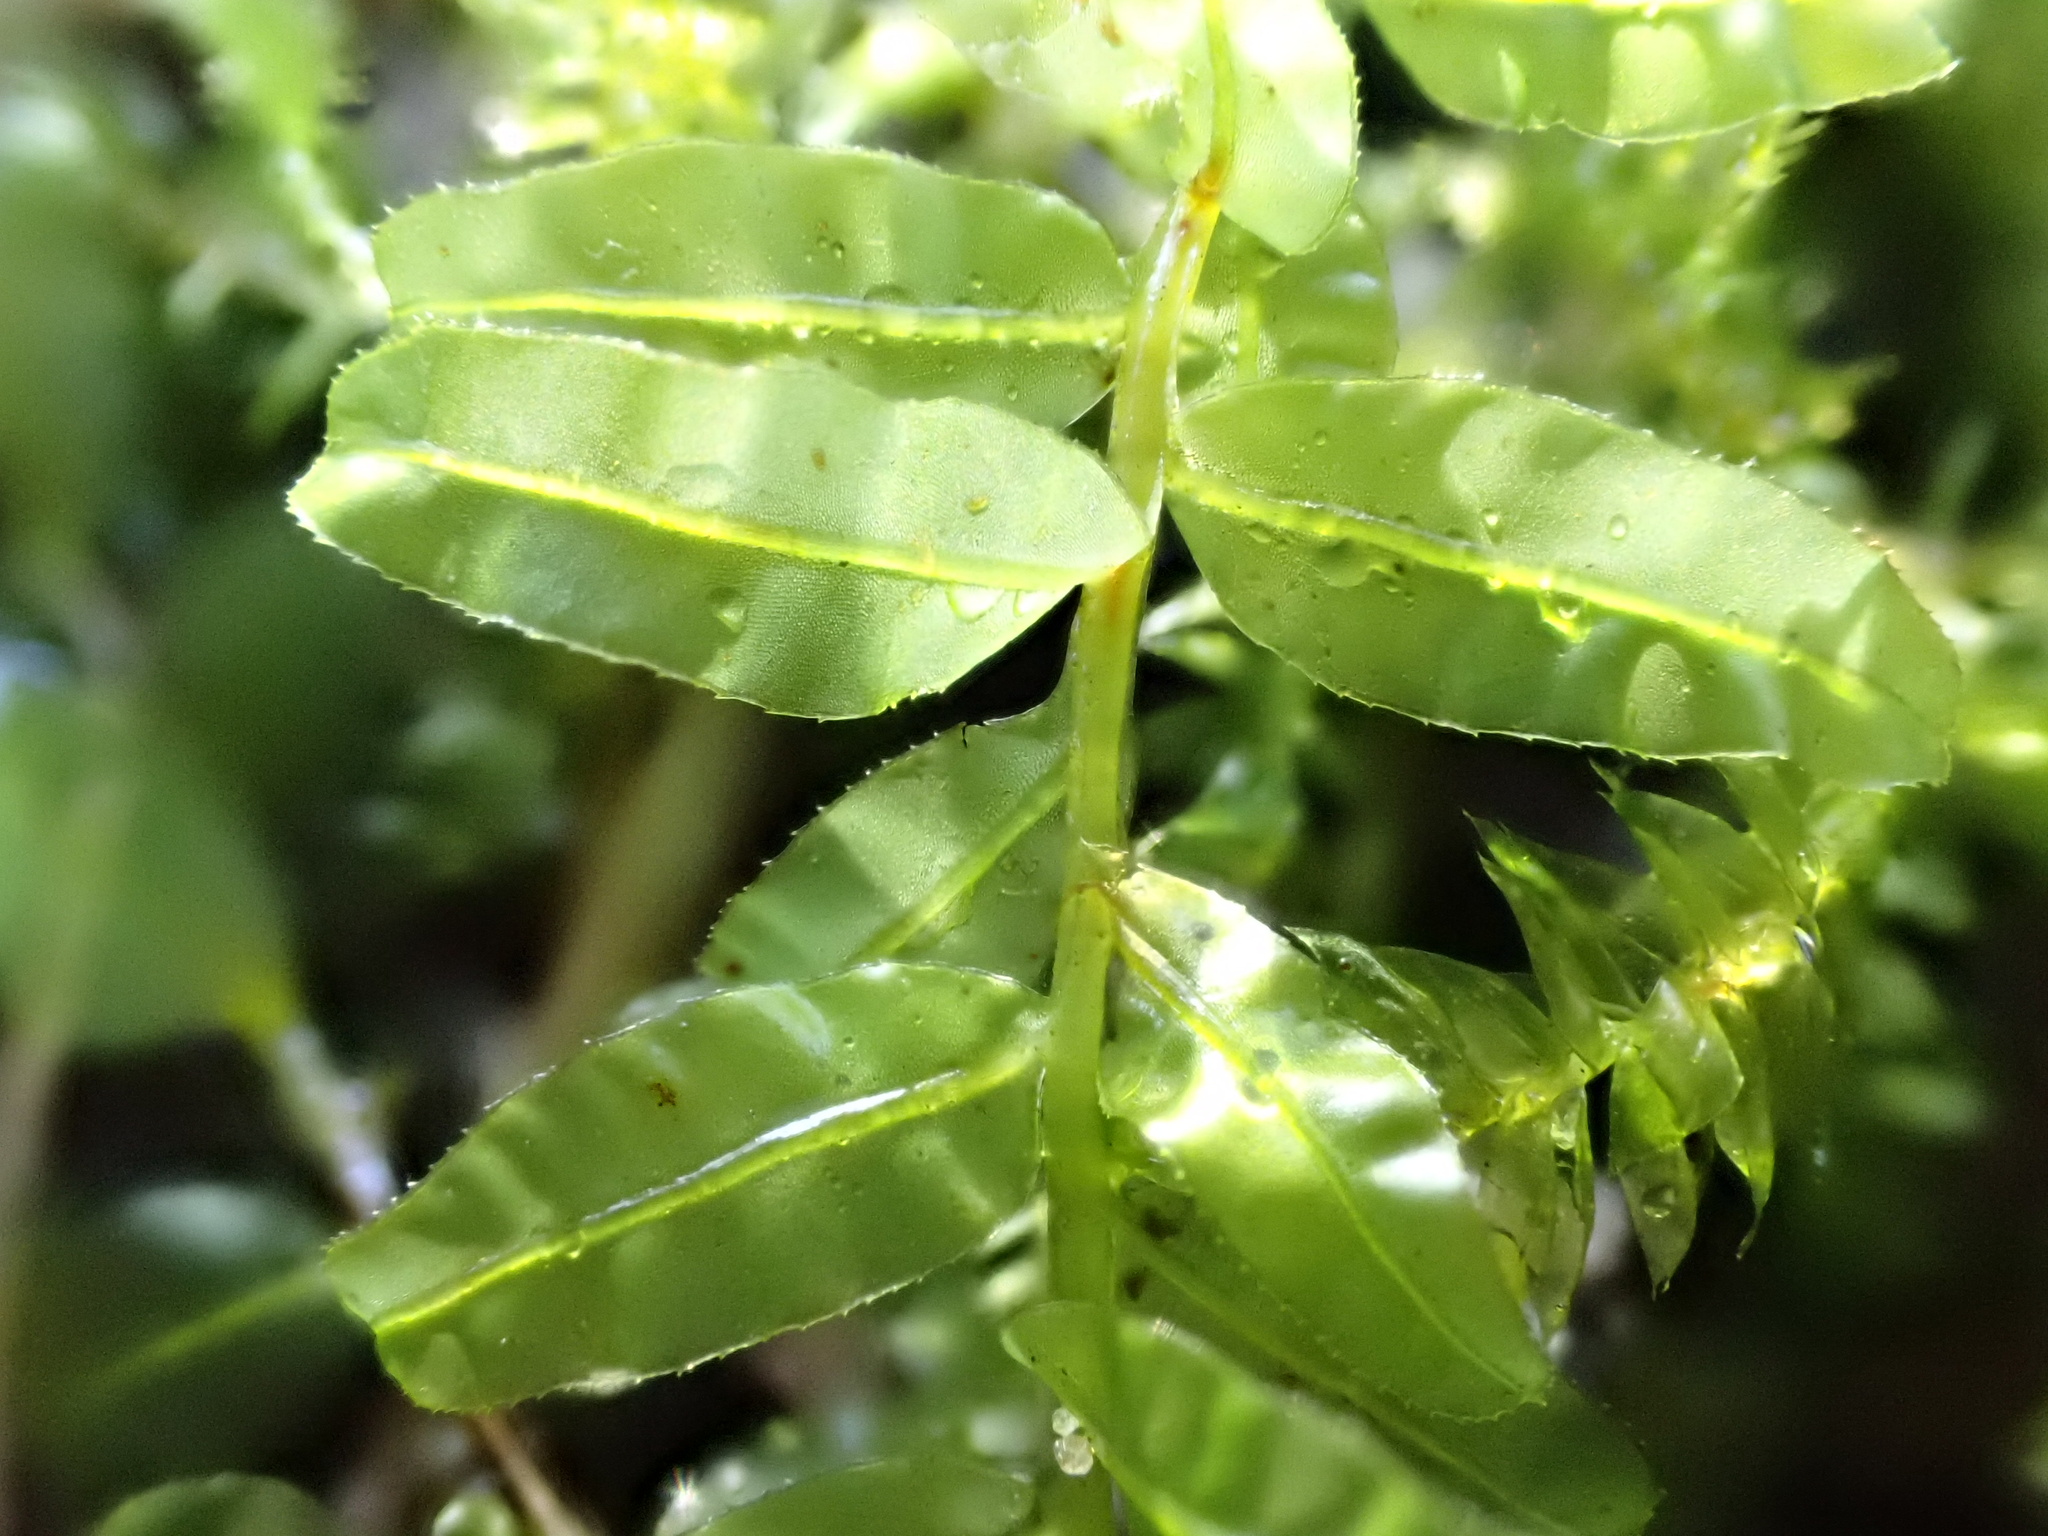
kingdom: Plantae
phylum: Bryophyta
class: Bryopsida
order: Bryales
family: Mniaceae
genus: Plagiomnium
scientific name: Plagiomnium undulatum
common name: Hart's-tongue thyme-moss
